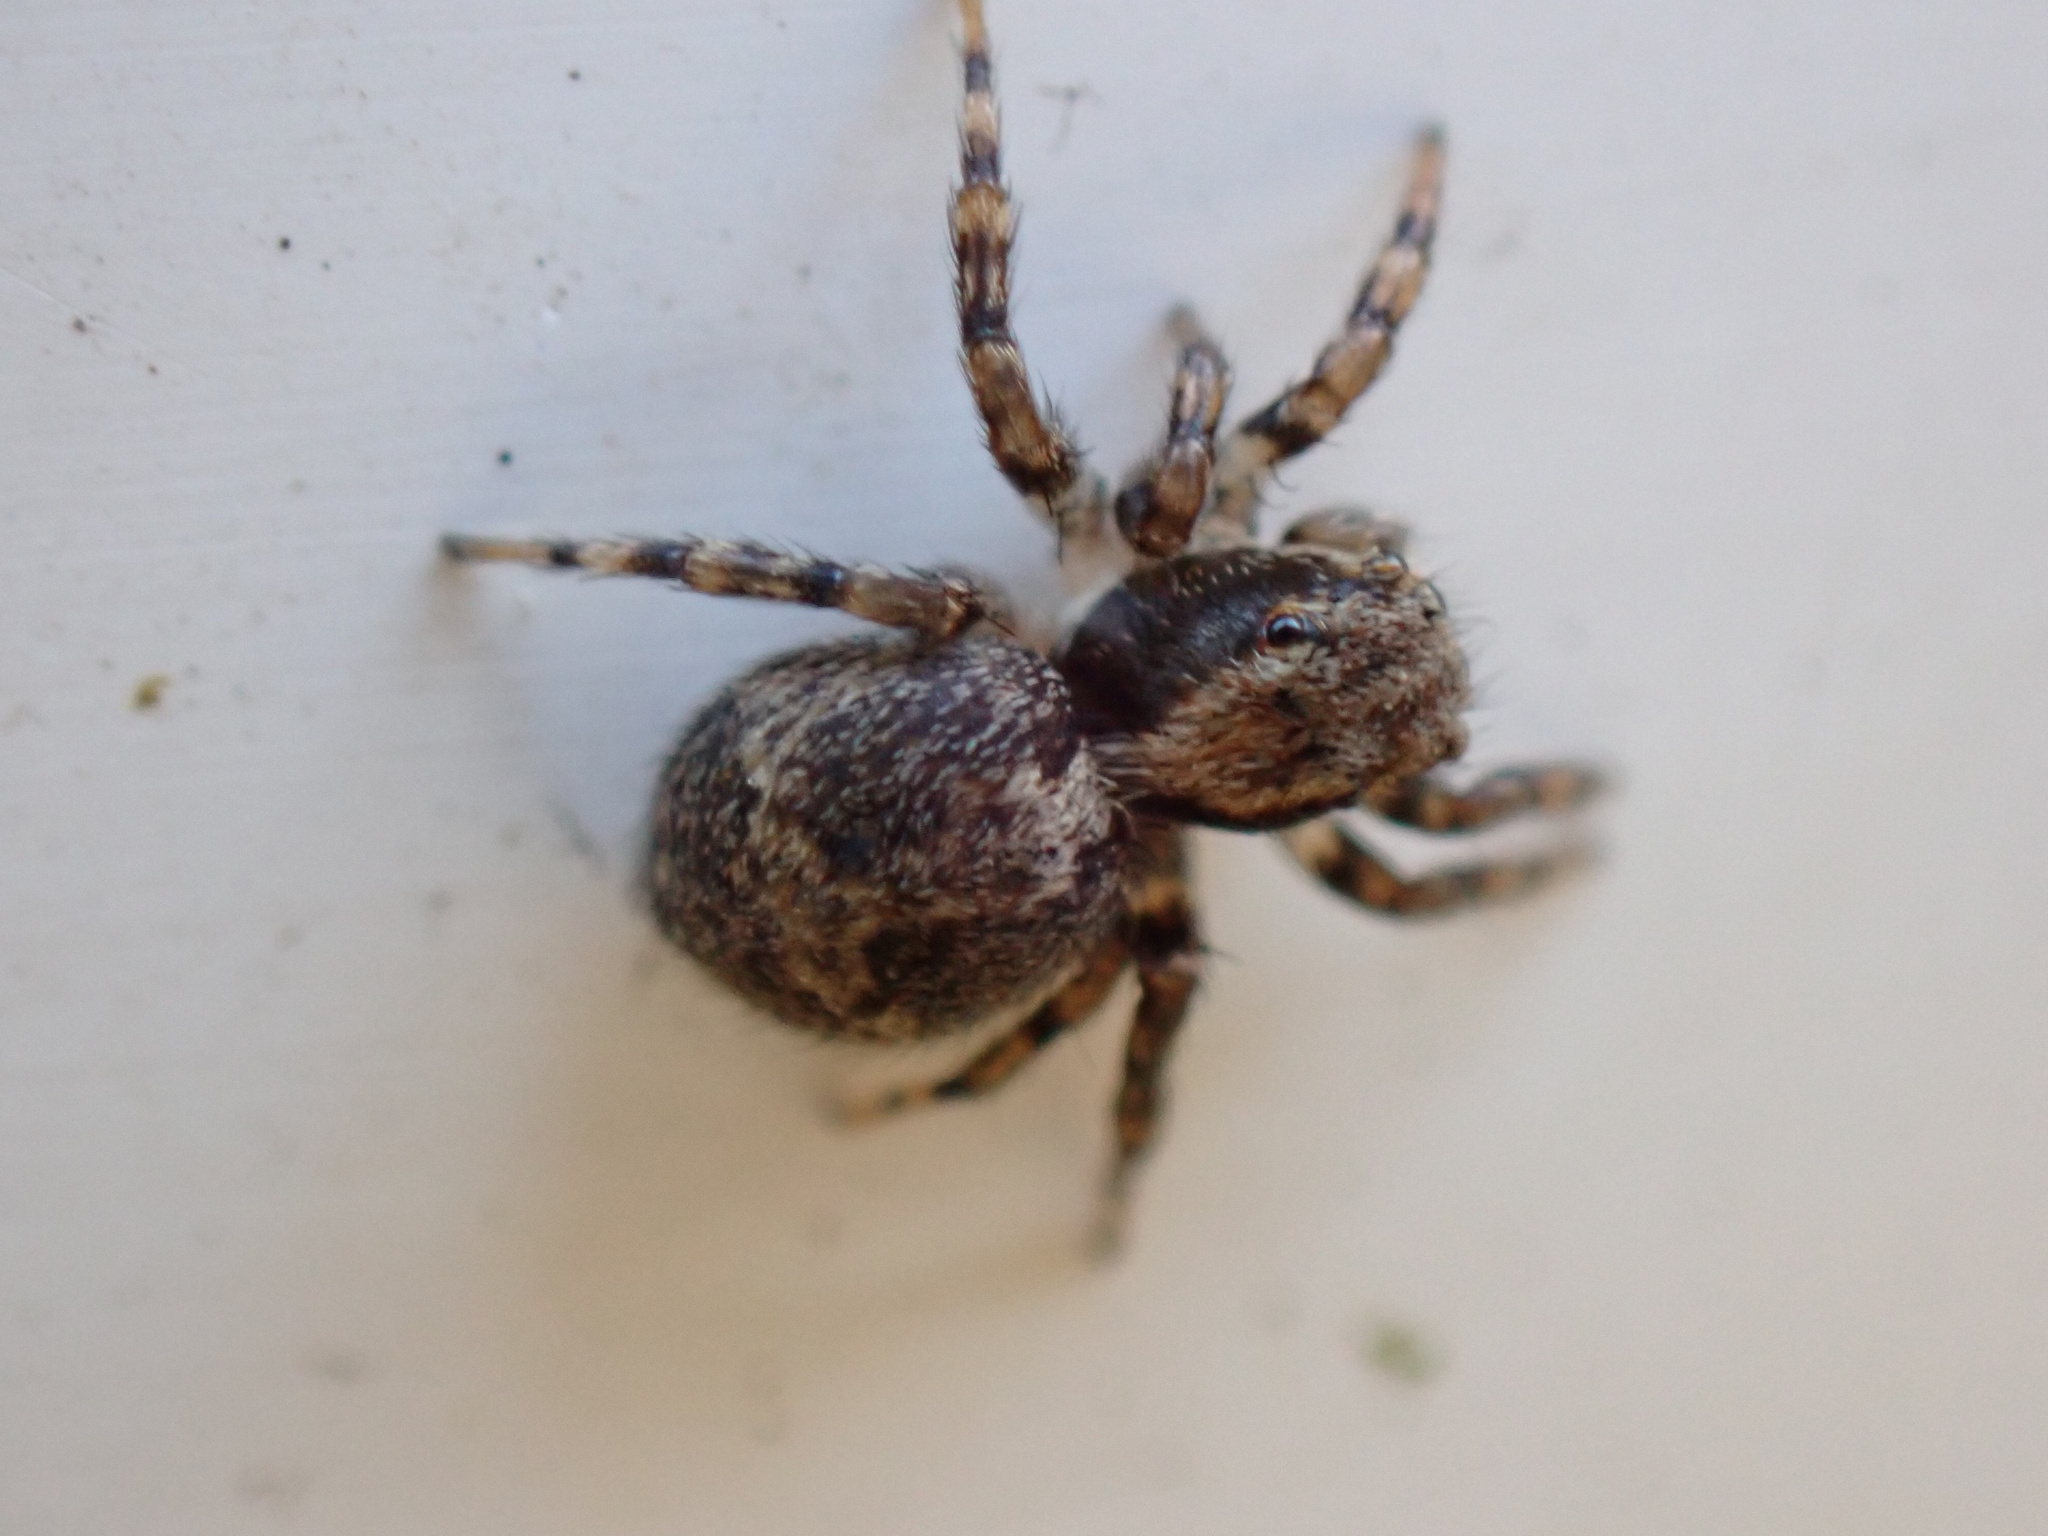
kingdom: Animalia
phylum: Arthropoda
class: Arachnida
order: Araneae
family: Salticidae
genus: Naphrys
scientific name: Naphrys pulex
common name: Flea jumping spider
